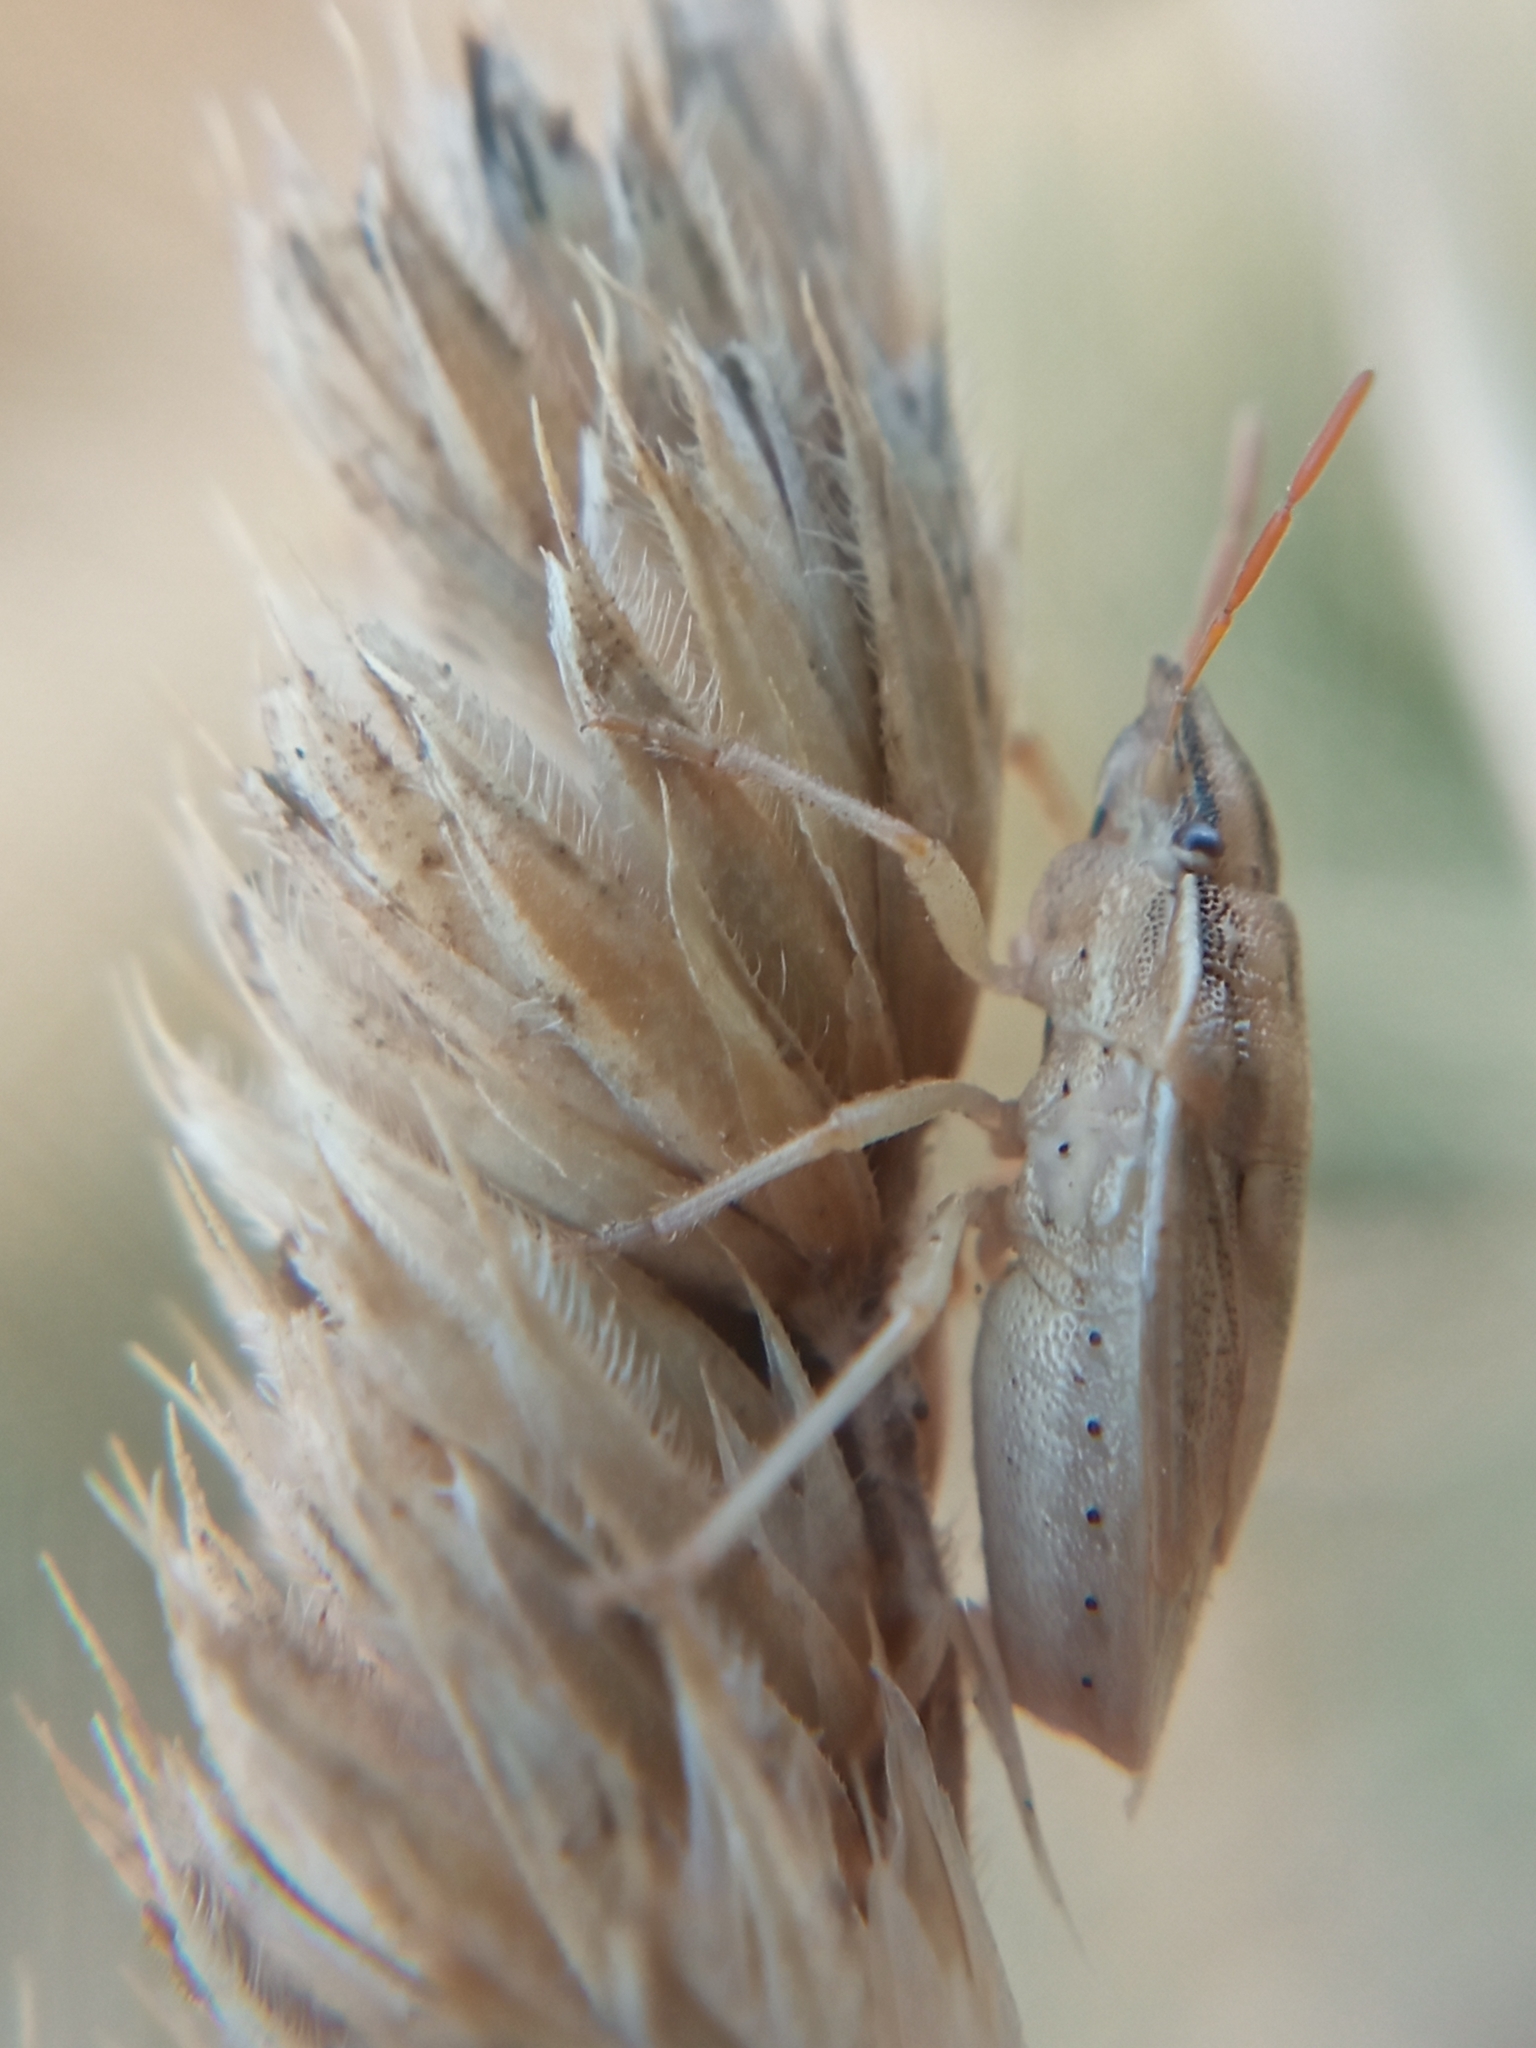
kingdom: Animalia
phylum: Arthropoda
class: Insecta
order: Hemiptera
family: Pentatomidae
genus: Aelia
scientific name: Aelia acuminata
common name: Bishop's mitre
